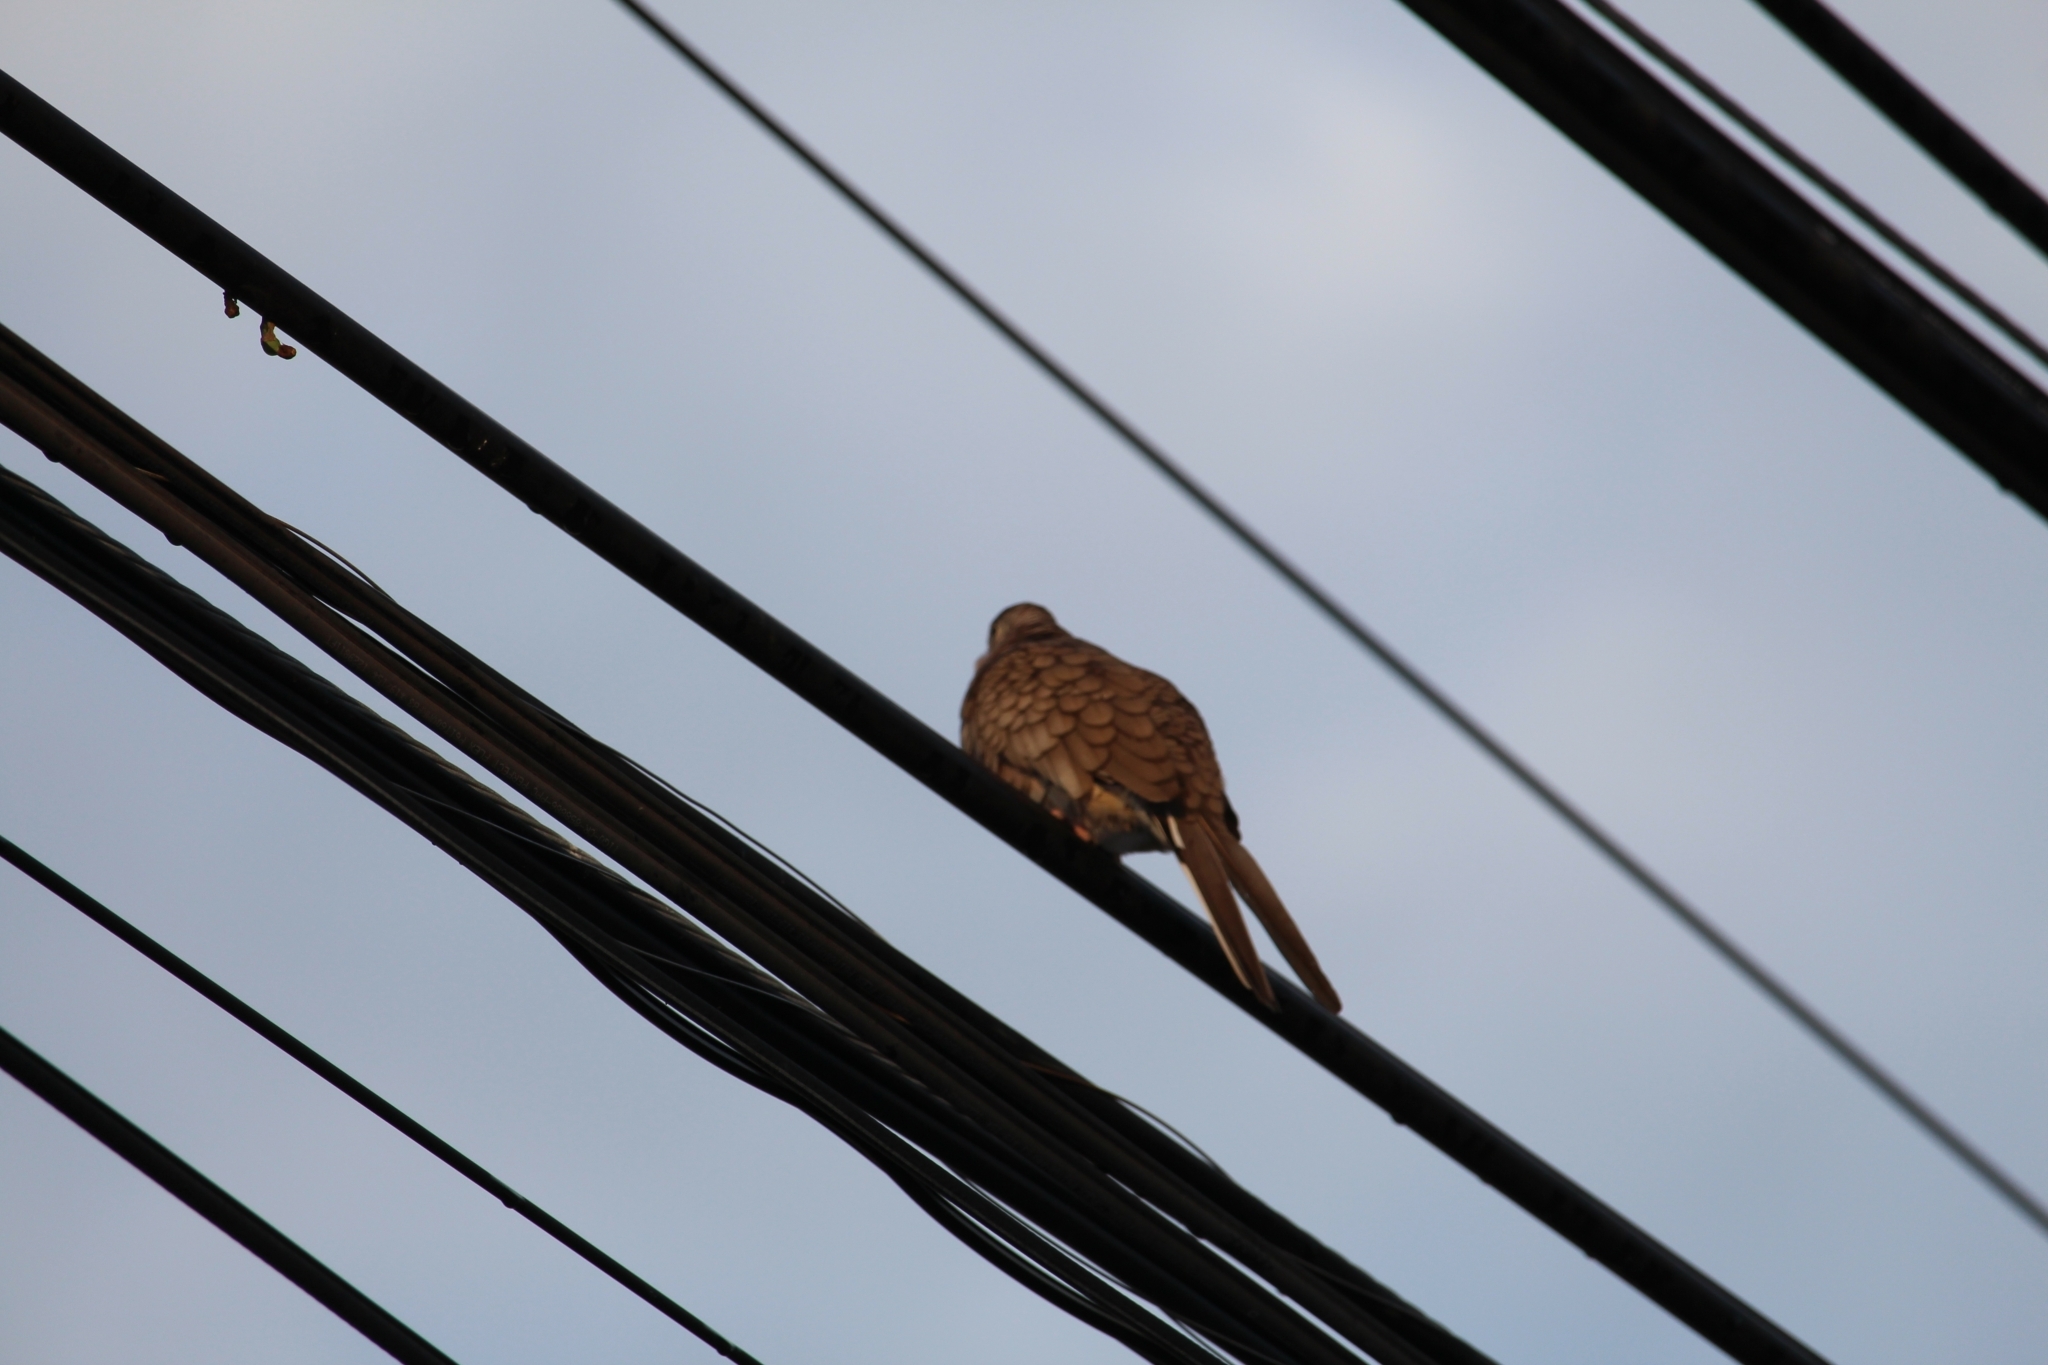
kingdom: Animalia
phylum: Chordata
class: Aves
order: Columbiformes
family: Columbidae
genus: Columbina
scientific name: Columbina inca
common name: Inca dove
